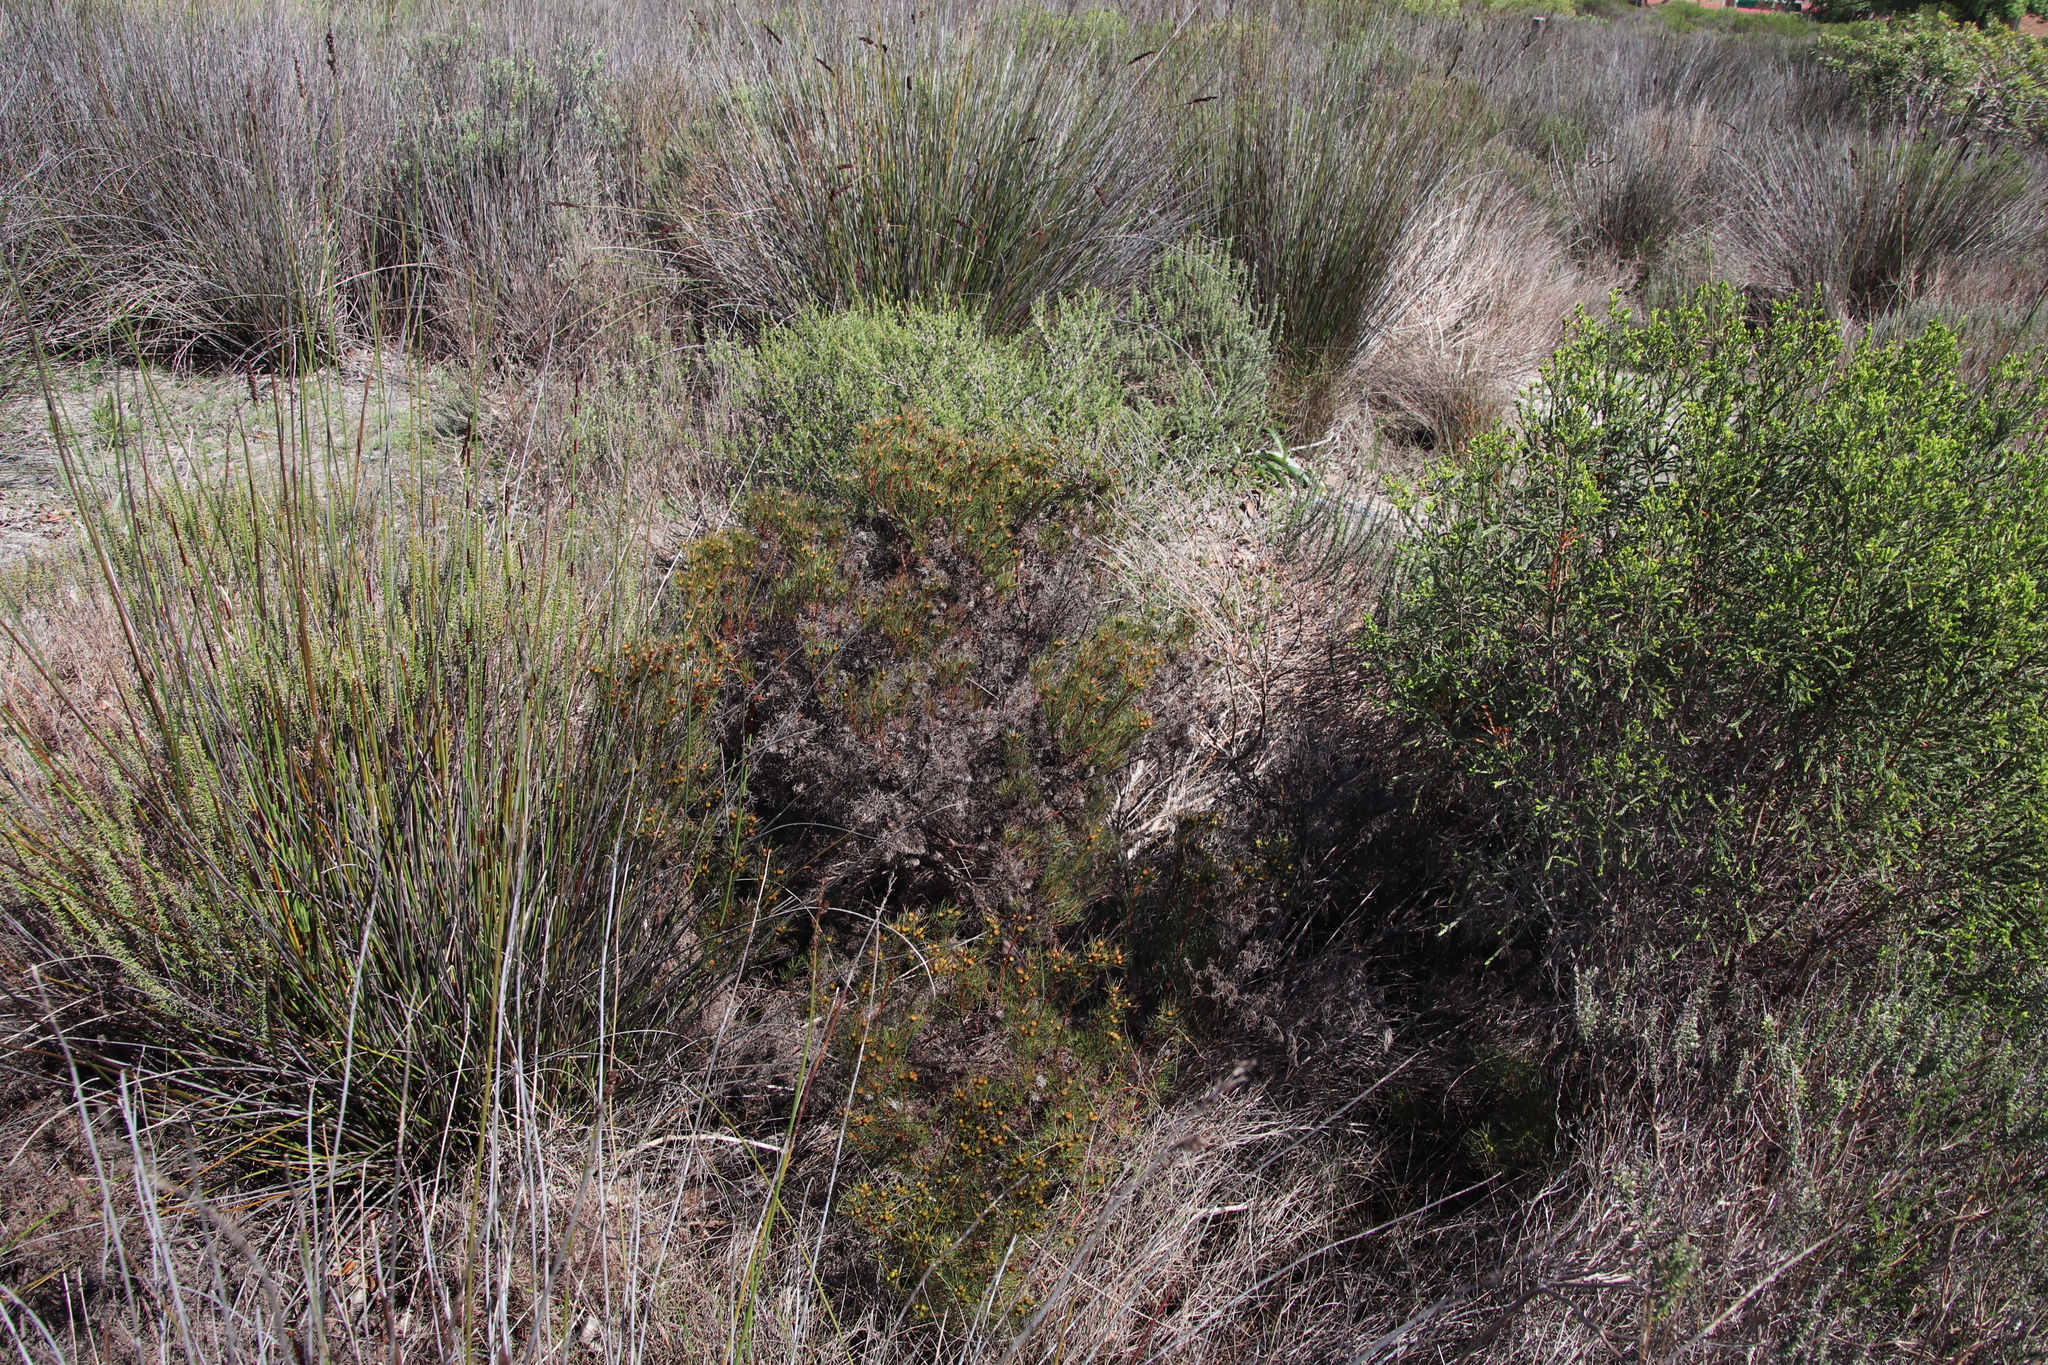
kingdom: Plantae
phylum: Tracheophyta
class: Magnoliopsida
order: Proteales
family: Proteaceae
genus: Serruria
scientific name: Serruria aemula
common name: Strawberry spiderhead
